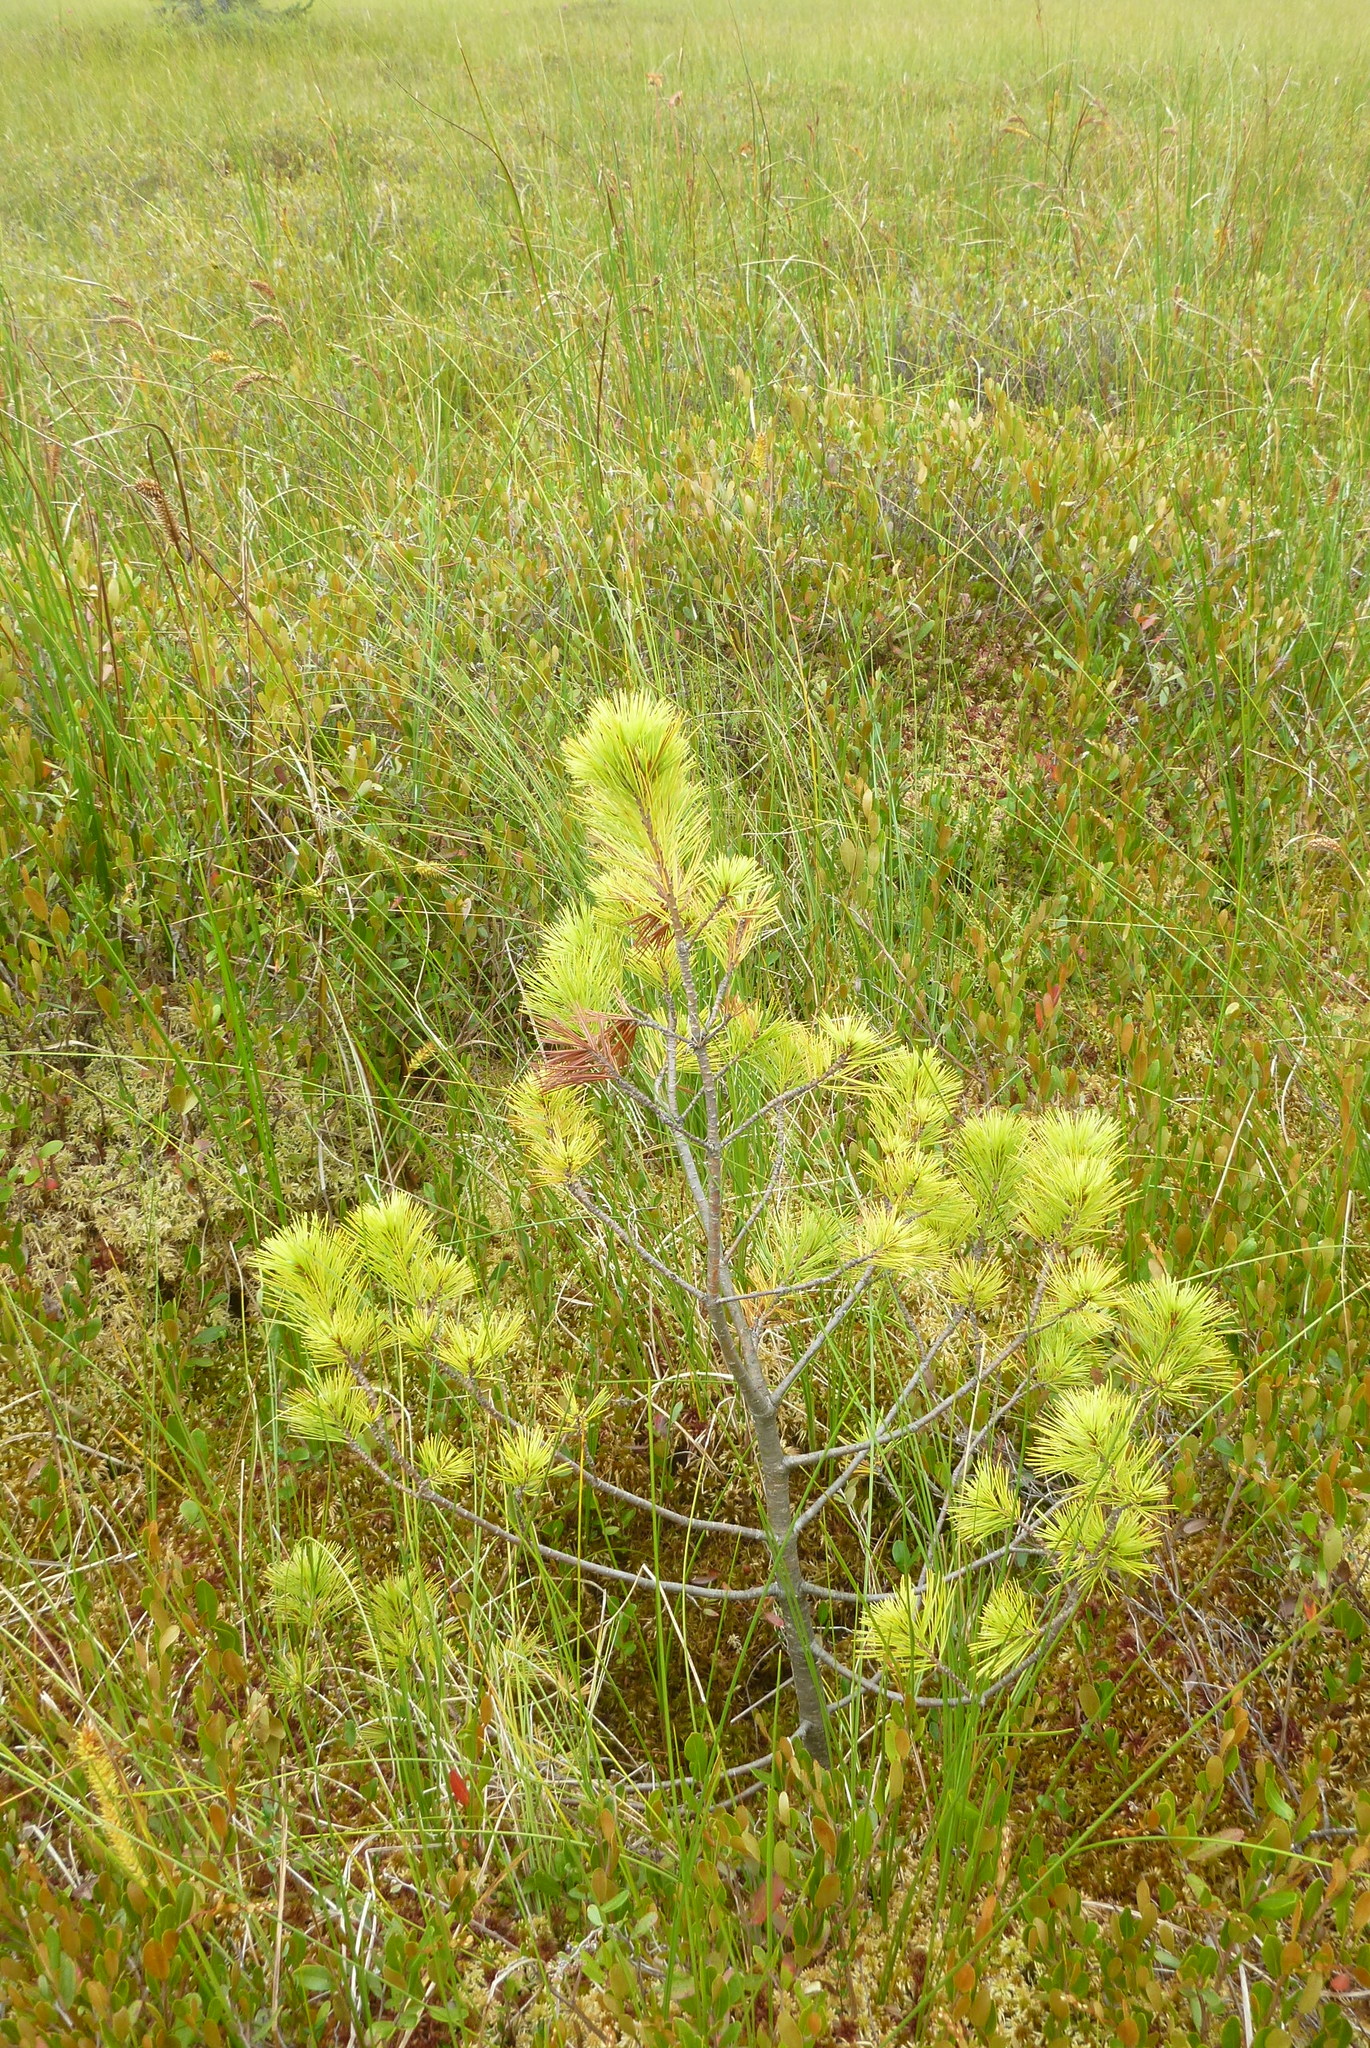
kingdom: Plantae
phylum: Tracheophyta
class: Pinopsida
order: Pinales
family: Pinaceae
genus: Pinus
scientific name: Pinus strobus
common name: Weymouth pine
